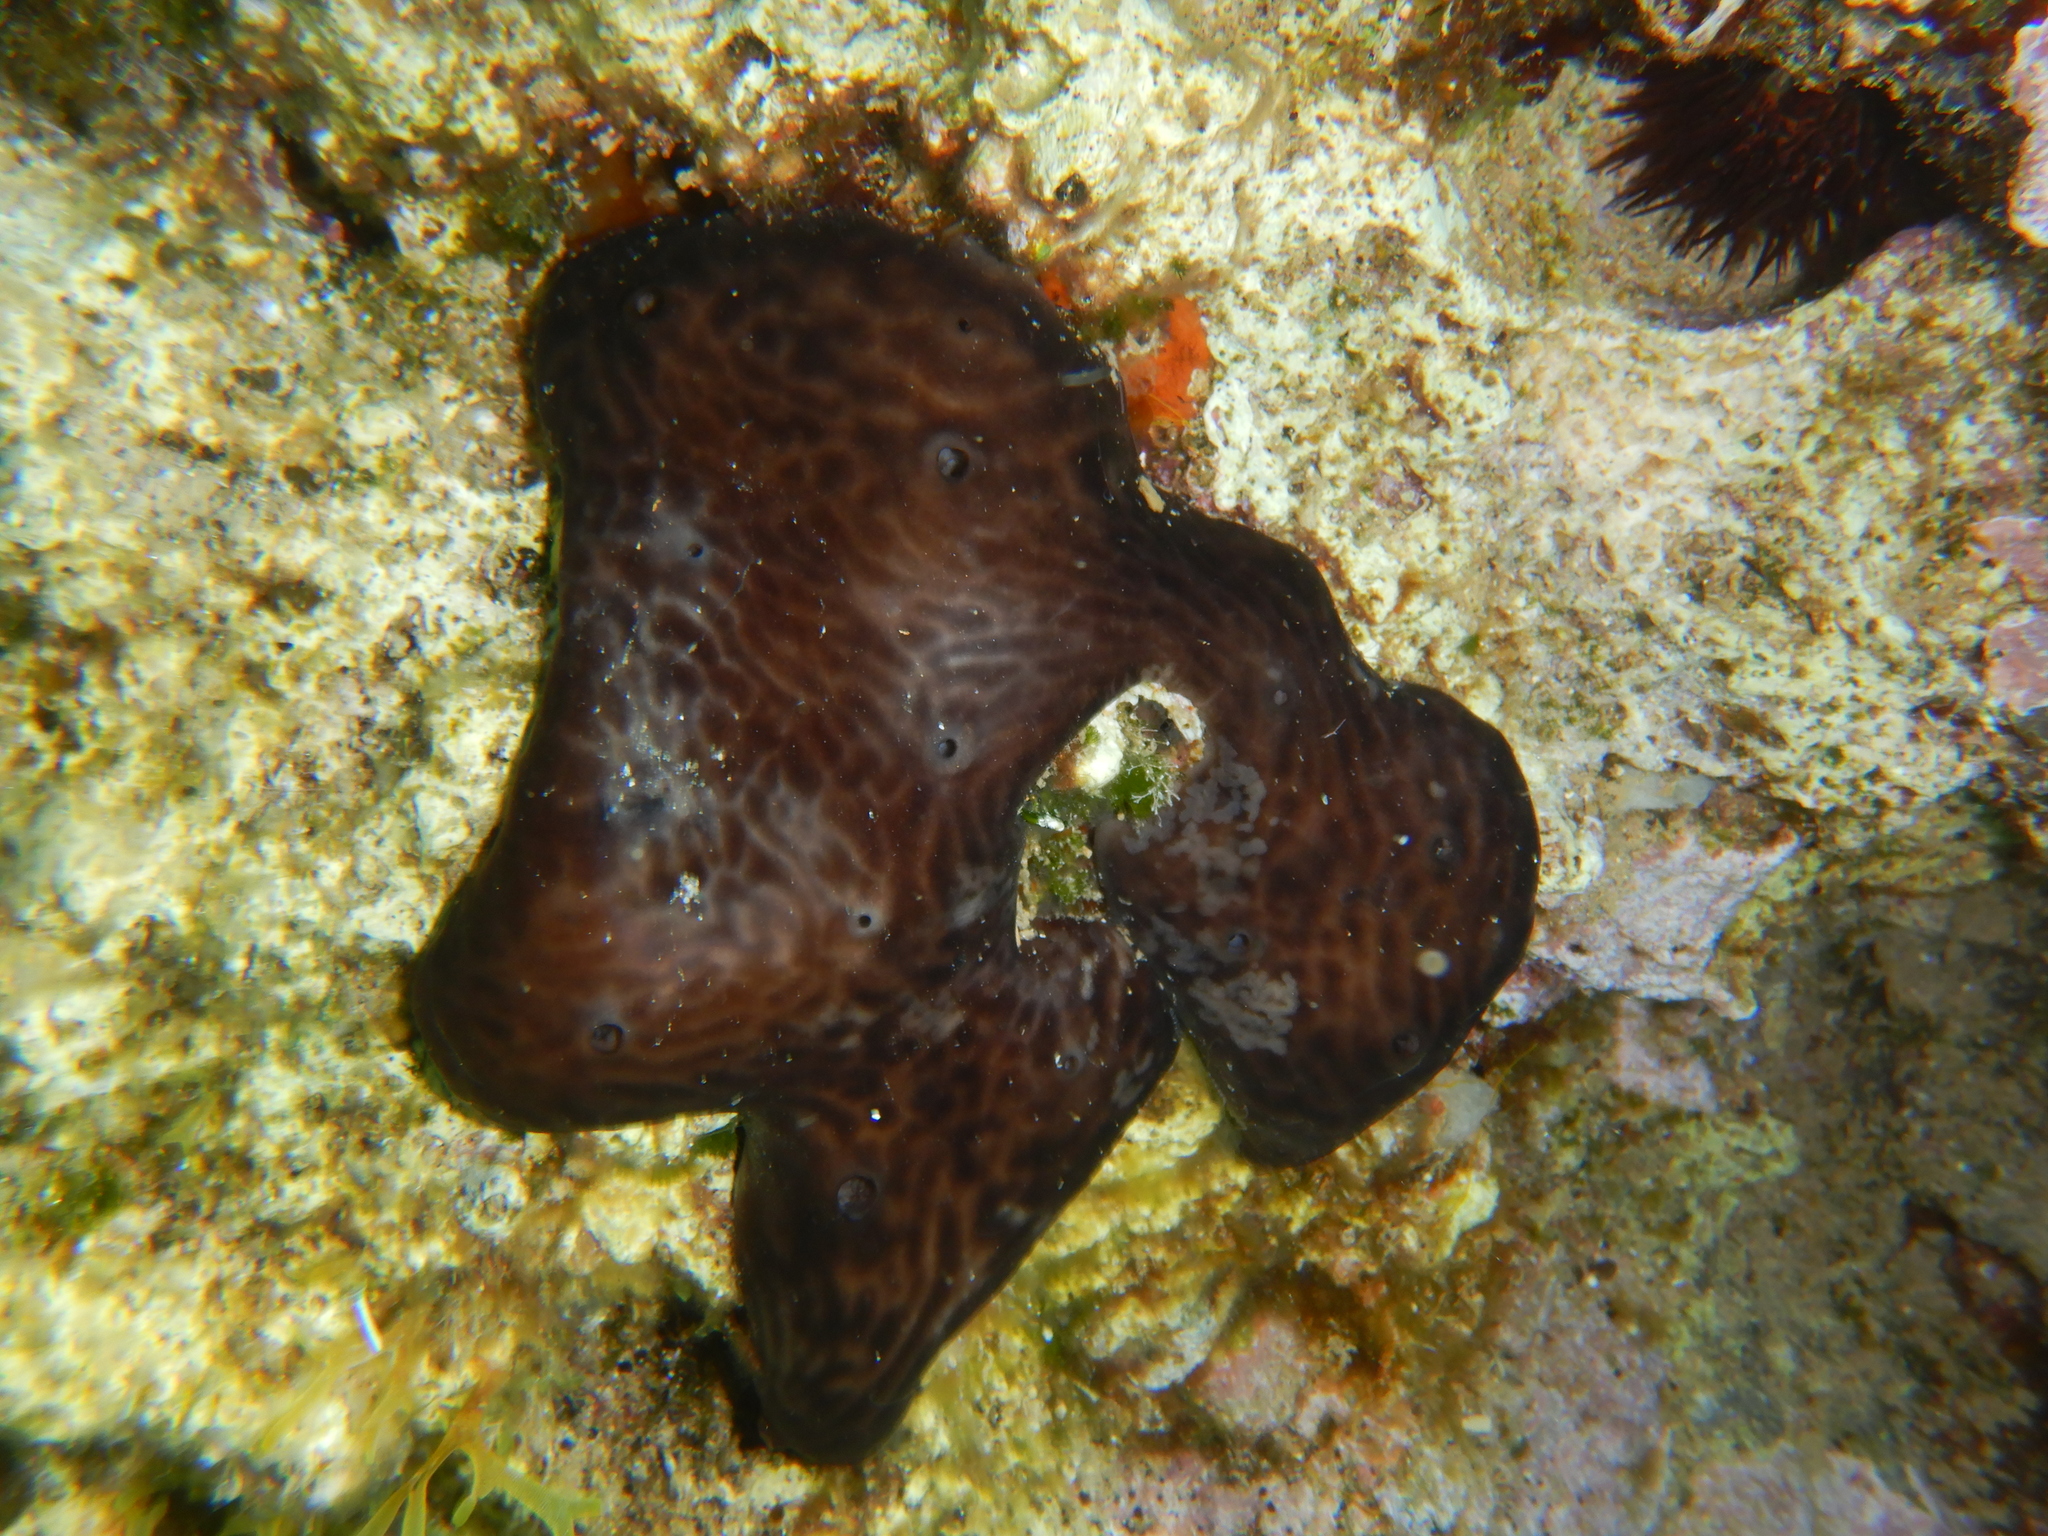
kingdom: Animalia
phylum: Porifera
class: Demospongiae
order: Chondrosiida
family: Chondrosiidae
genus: Chondrosia
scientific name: Chondrosia reniformis
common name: Chicken liver sponge
